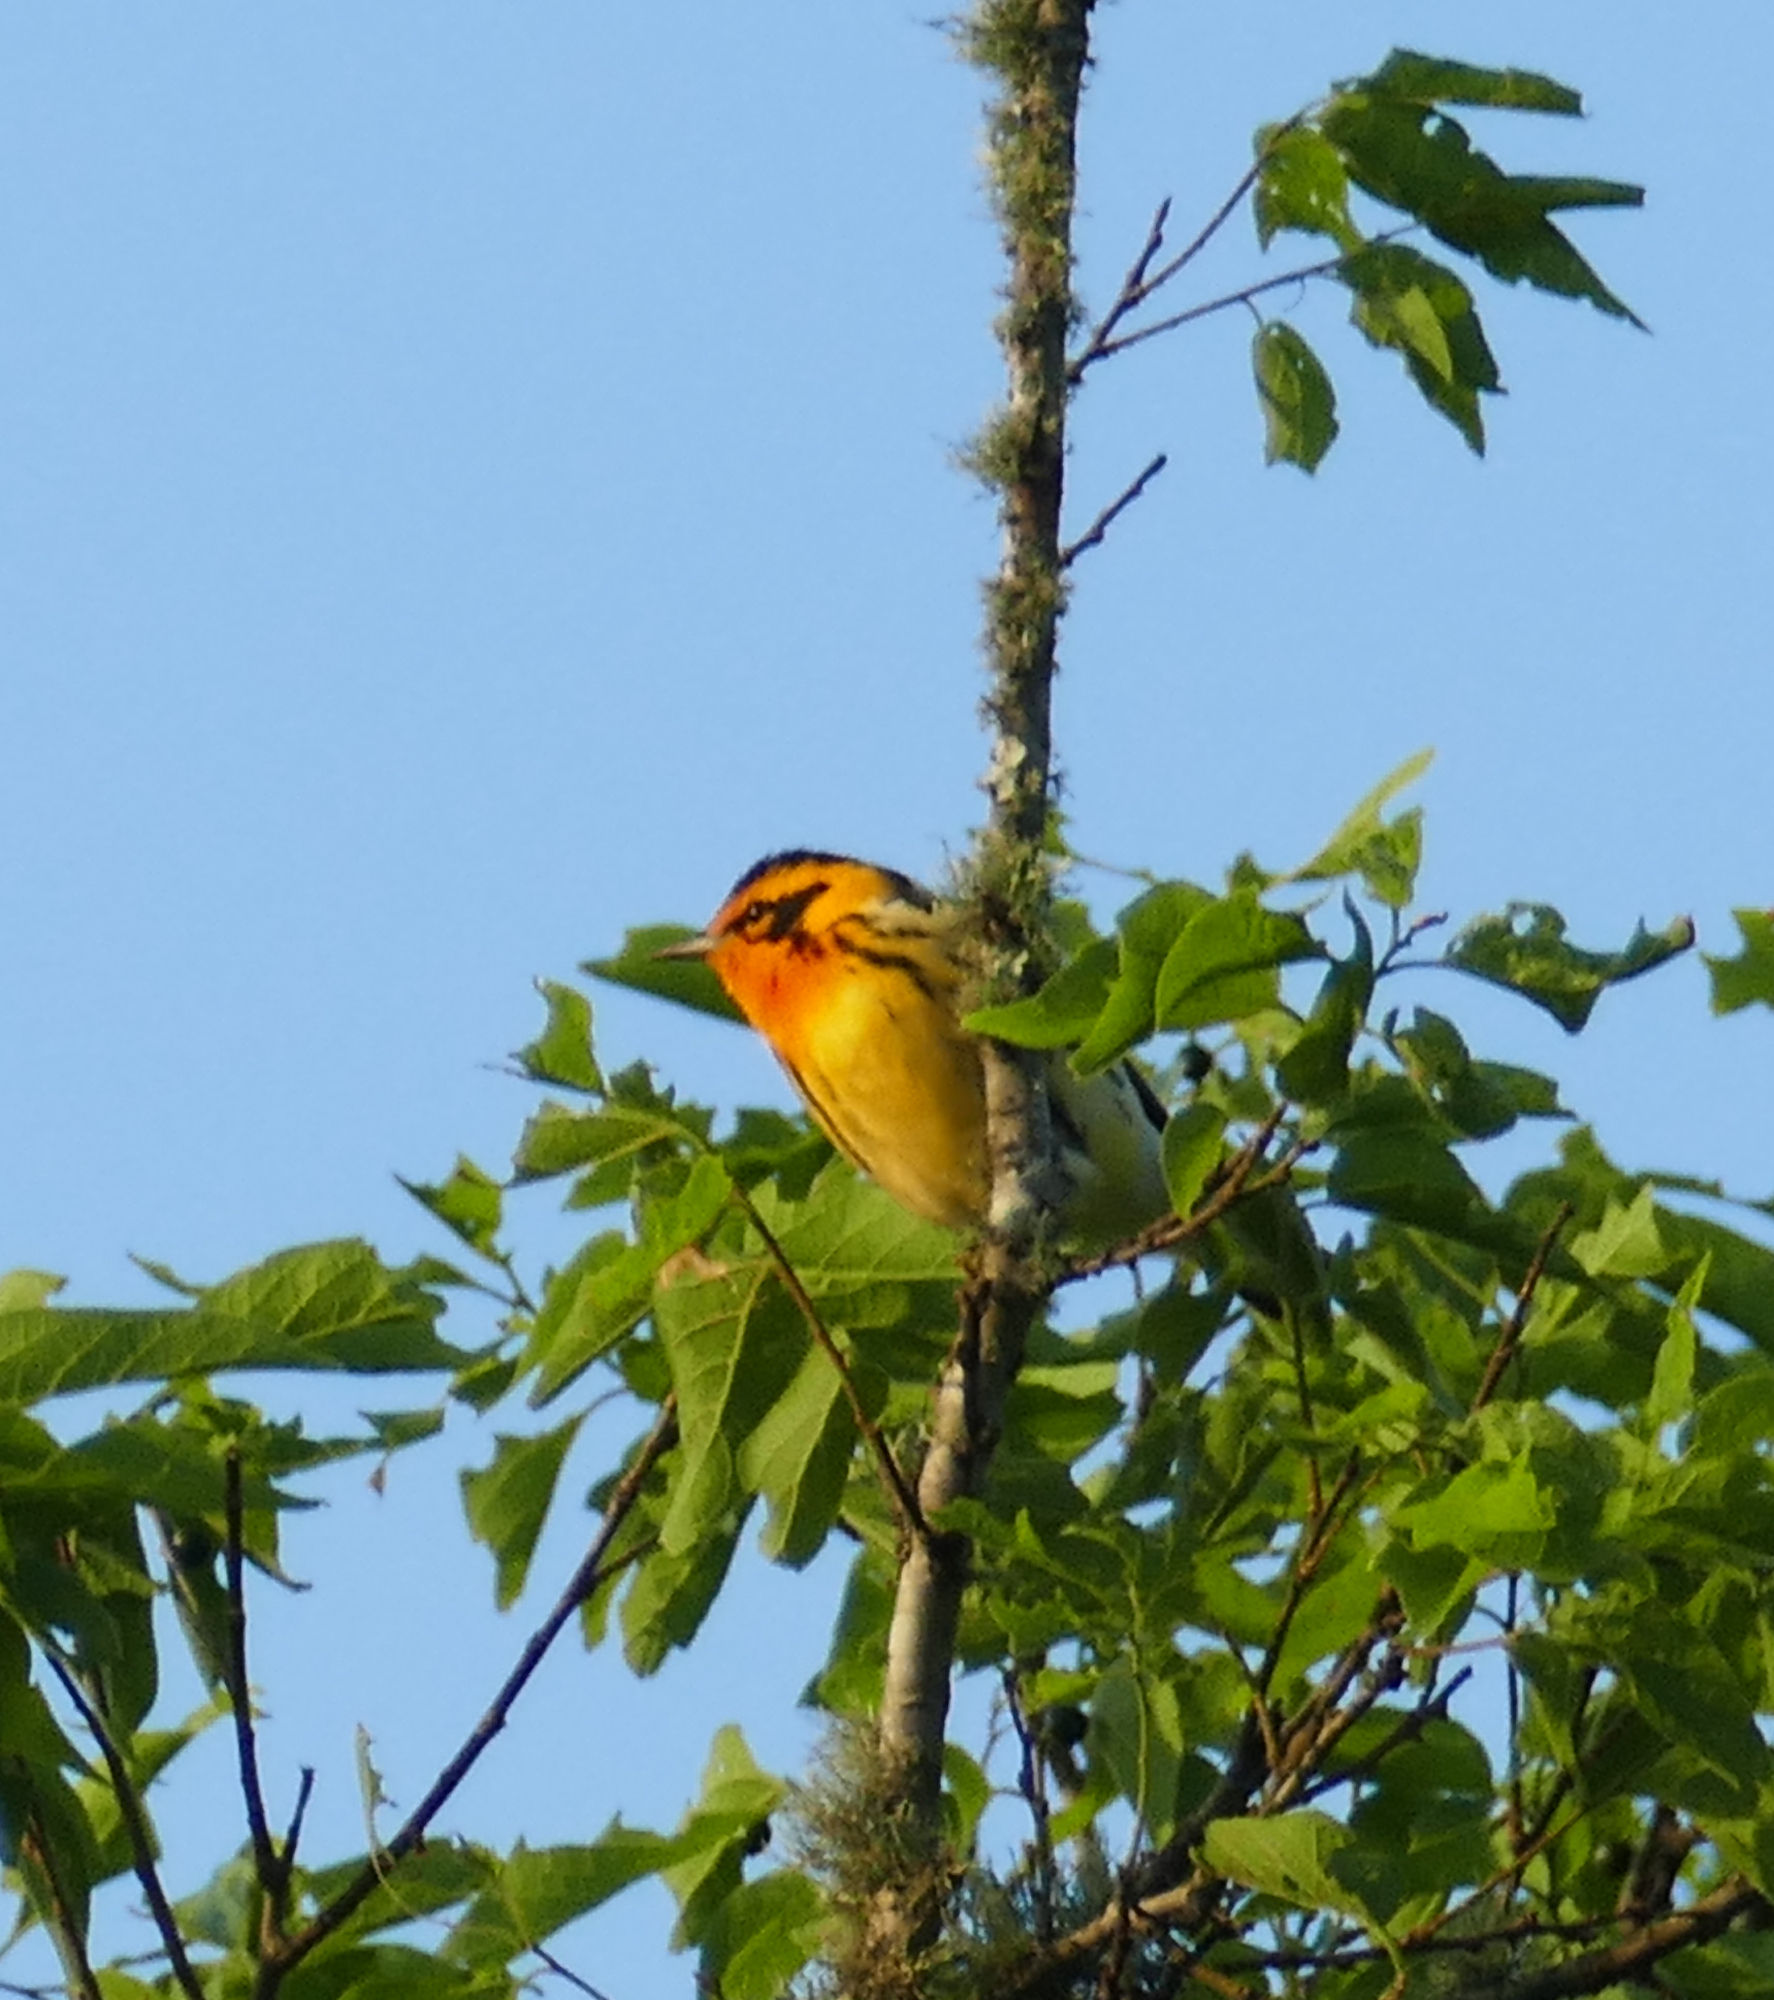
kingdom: Animalia
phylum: Chordata
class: Aves
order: Passeriformes
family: Parulidae
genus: Setophaga
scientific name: Setophaga fusca
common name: Blackburnian warbler
